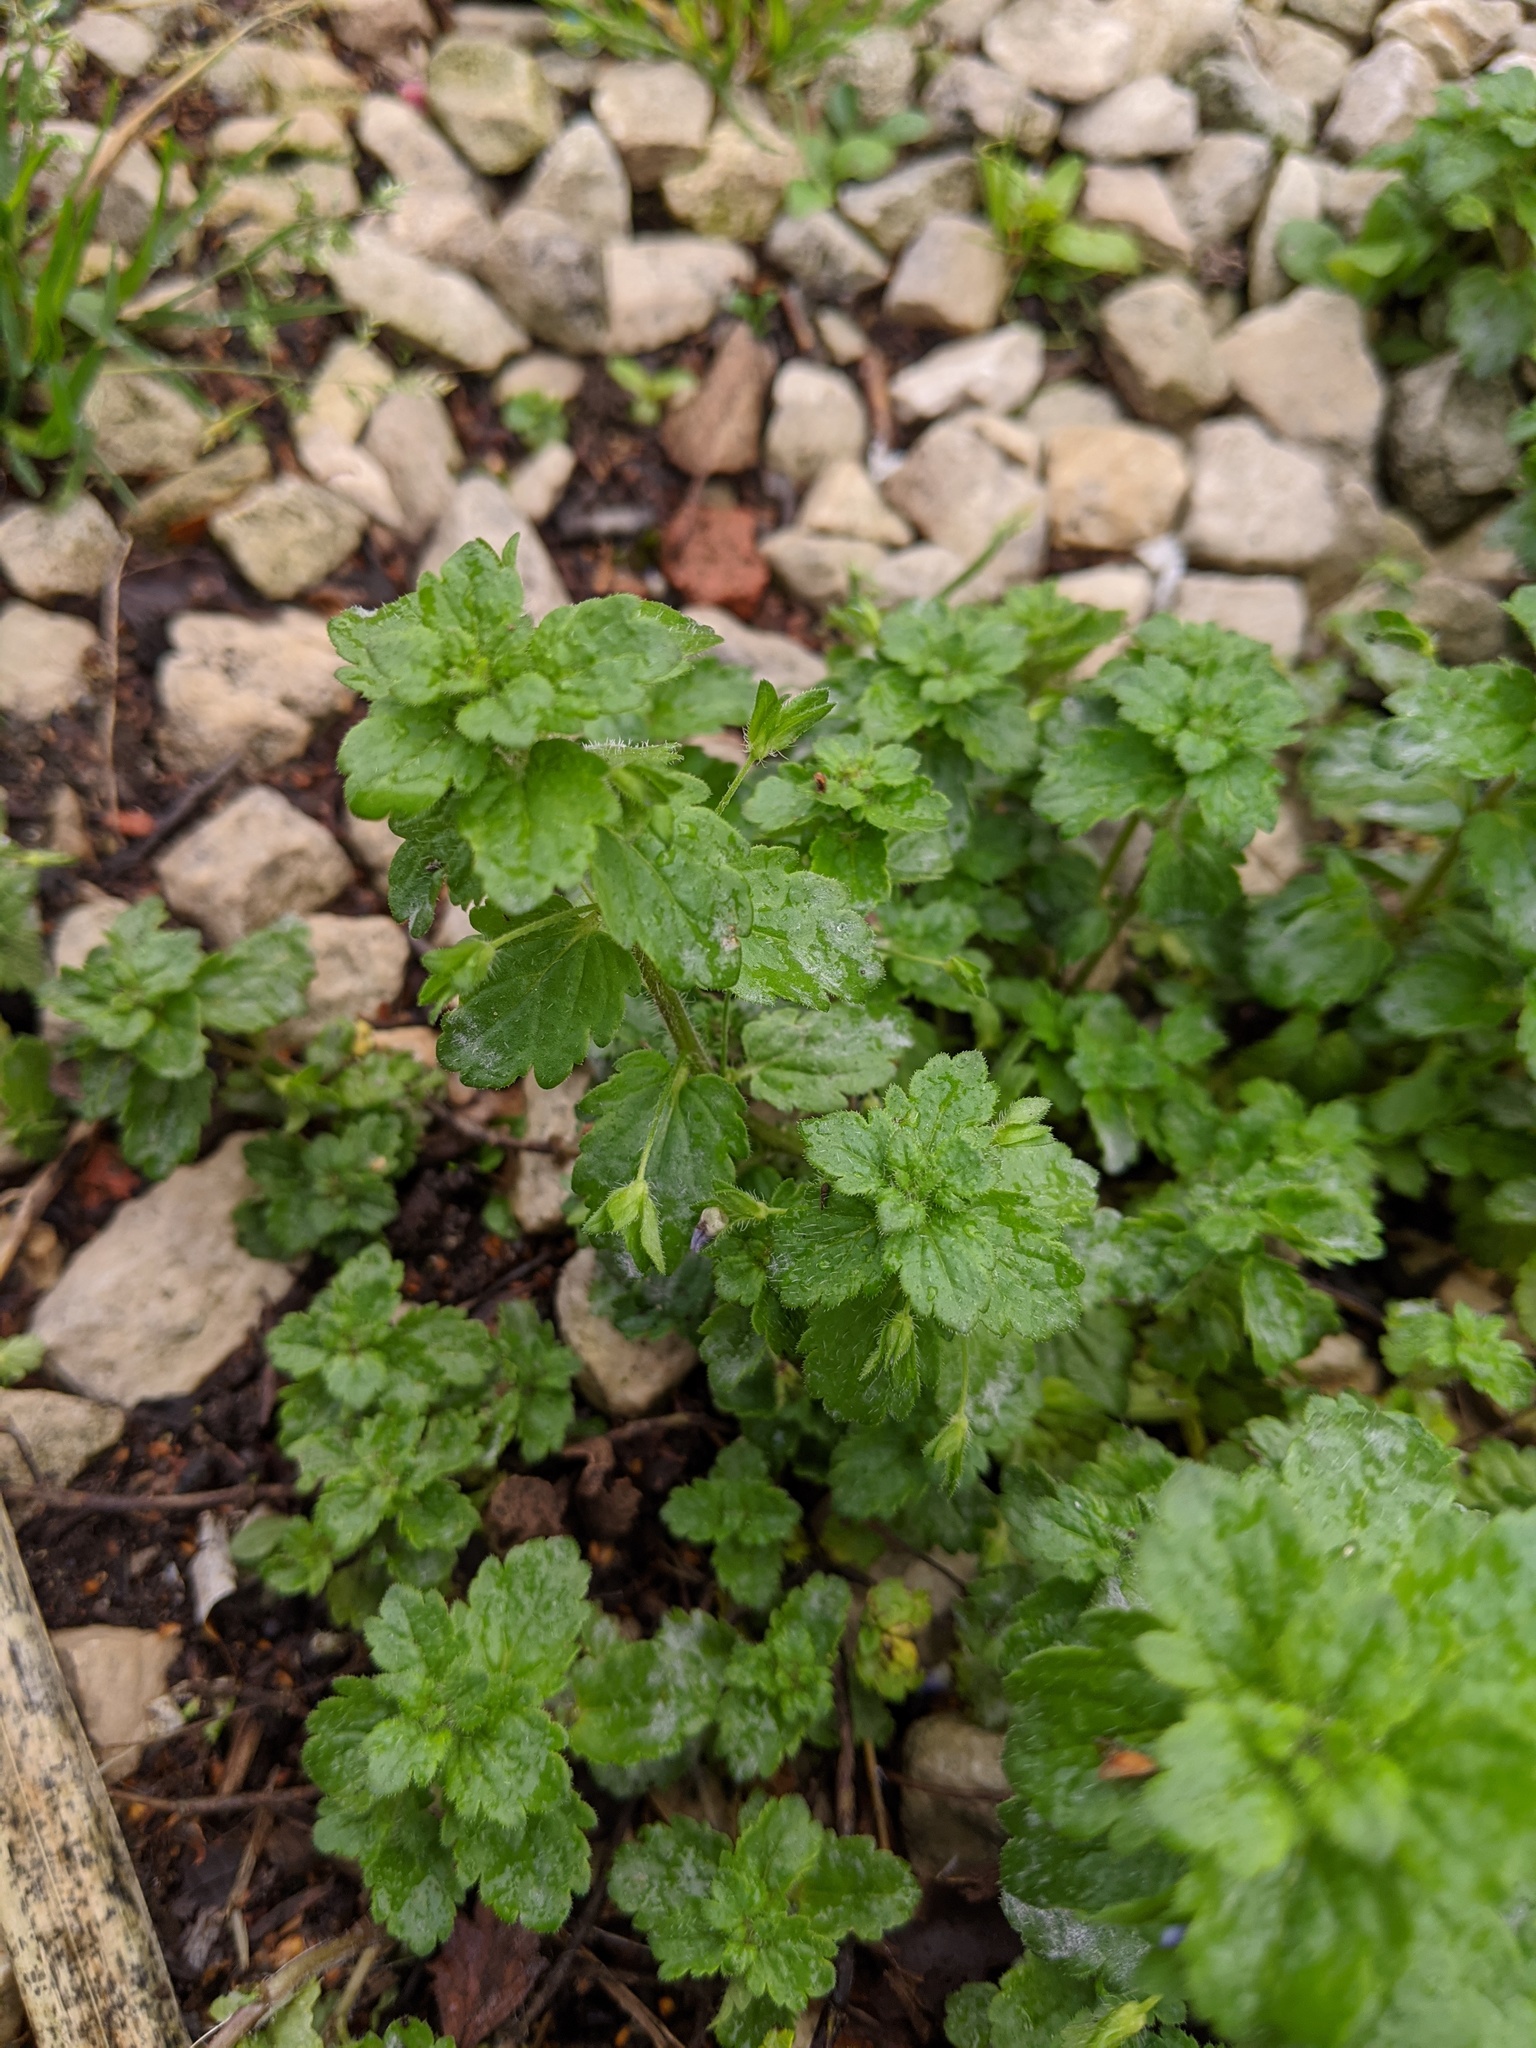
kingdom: Plantae
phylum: Tracheophyta
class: Magnoliopsida
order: Lamiales
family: Plantaginaceae
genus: Veronica
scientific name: Veronica persica
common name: Common field-speedwell
